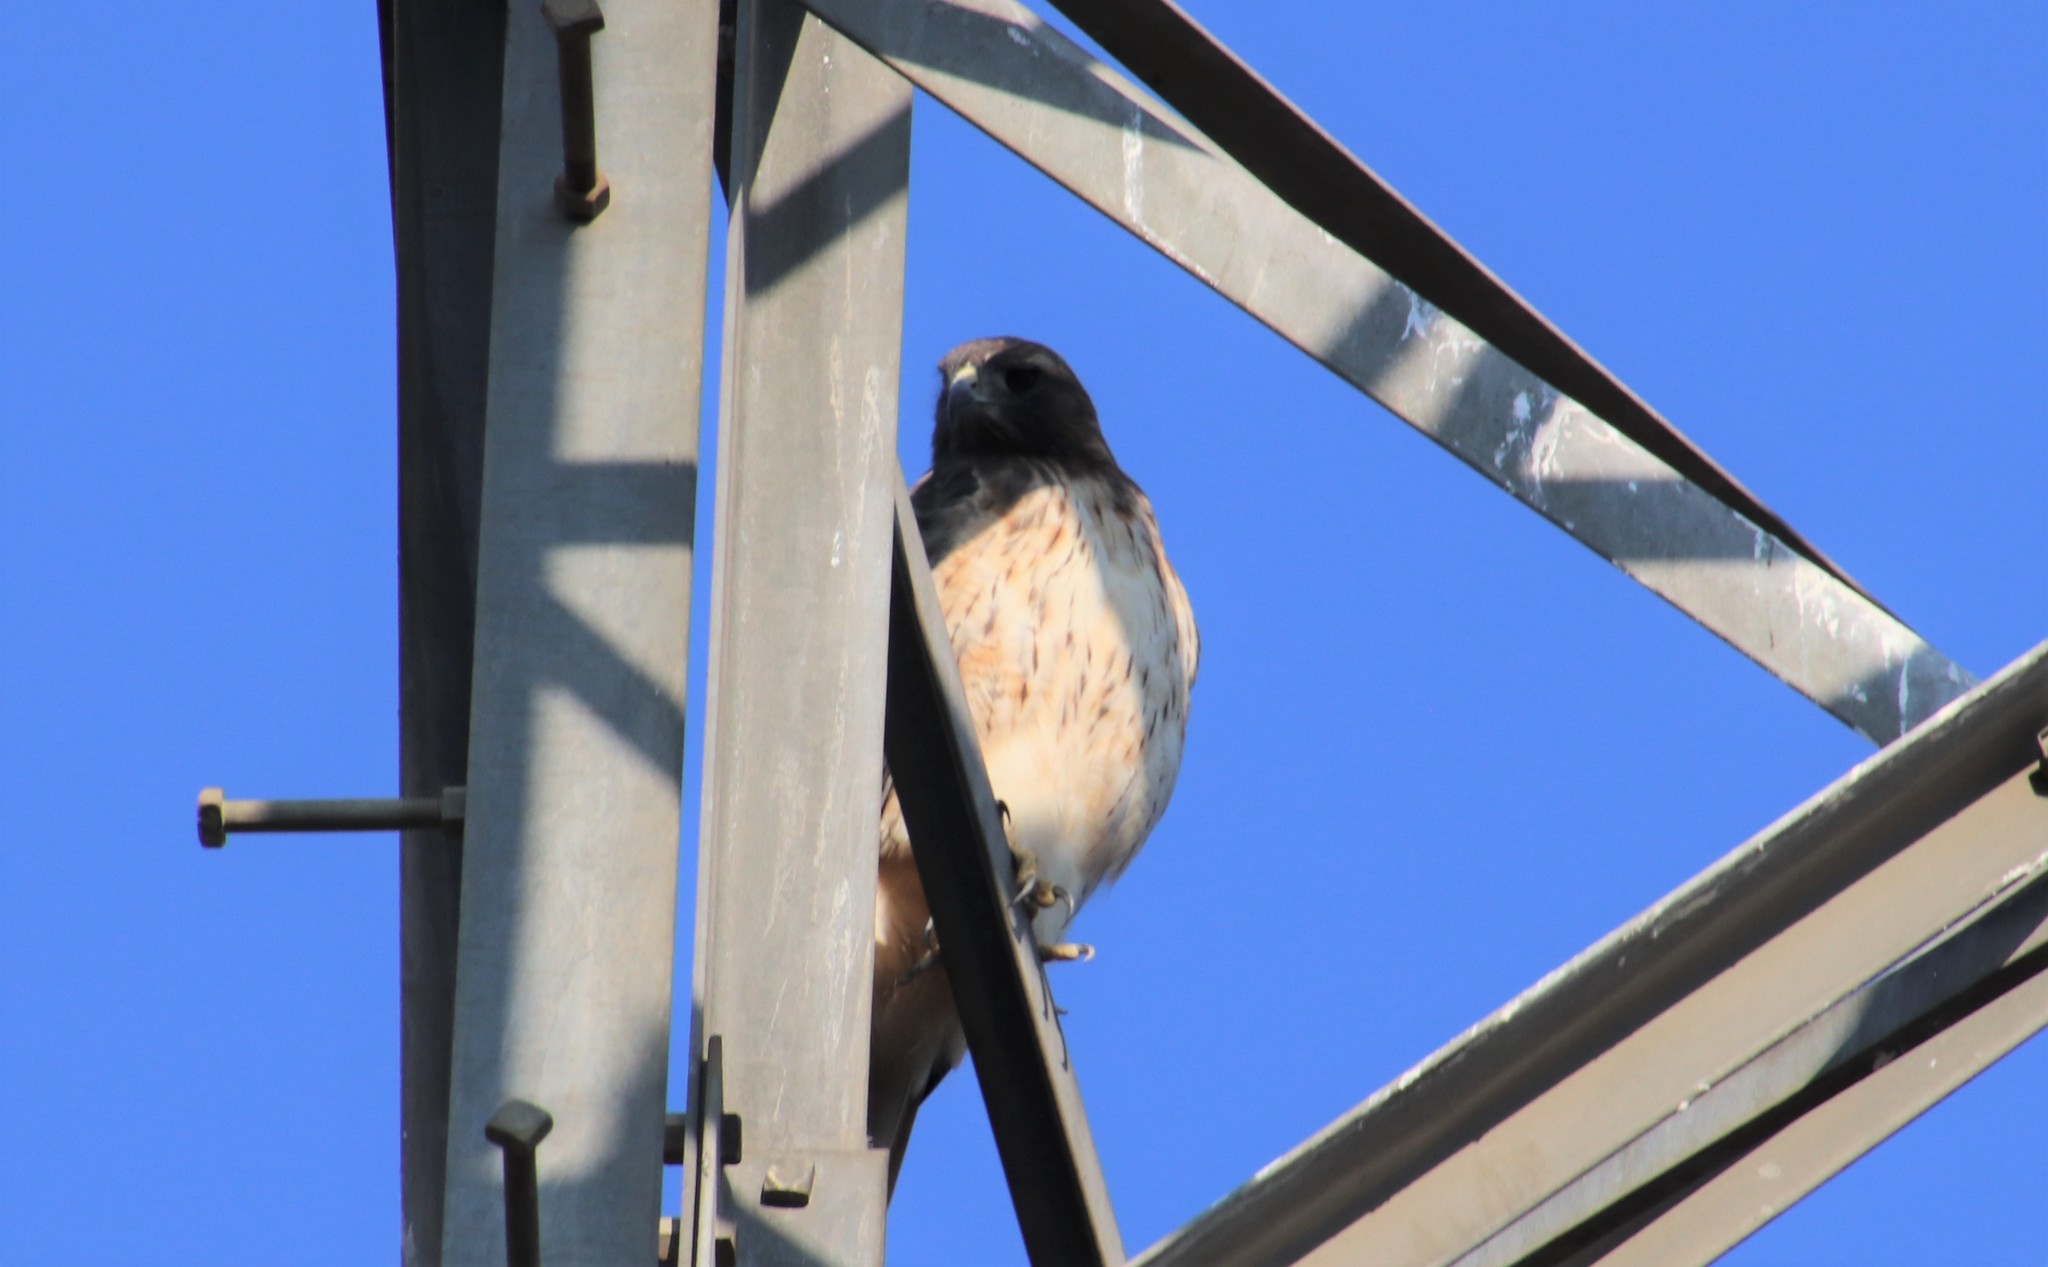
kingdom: Animalia
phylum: Chordata
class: Aves
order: Accipitriformes
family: Accipitridae
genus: Buteo
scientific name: Buteo jamaicensis
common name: Red-tailed hawk
